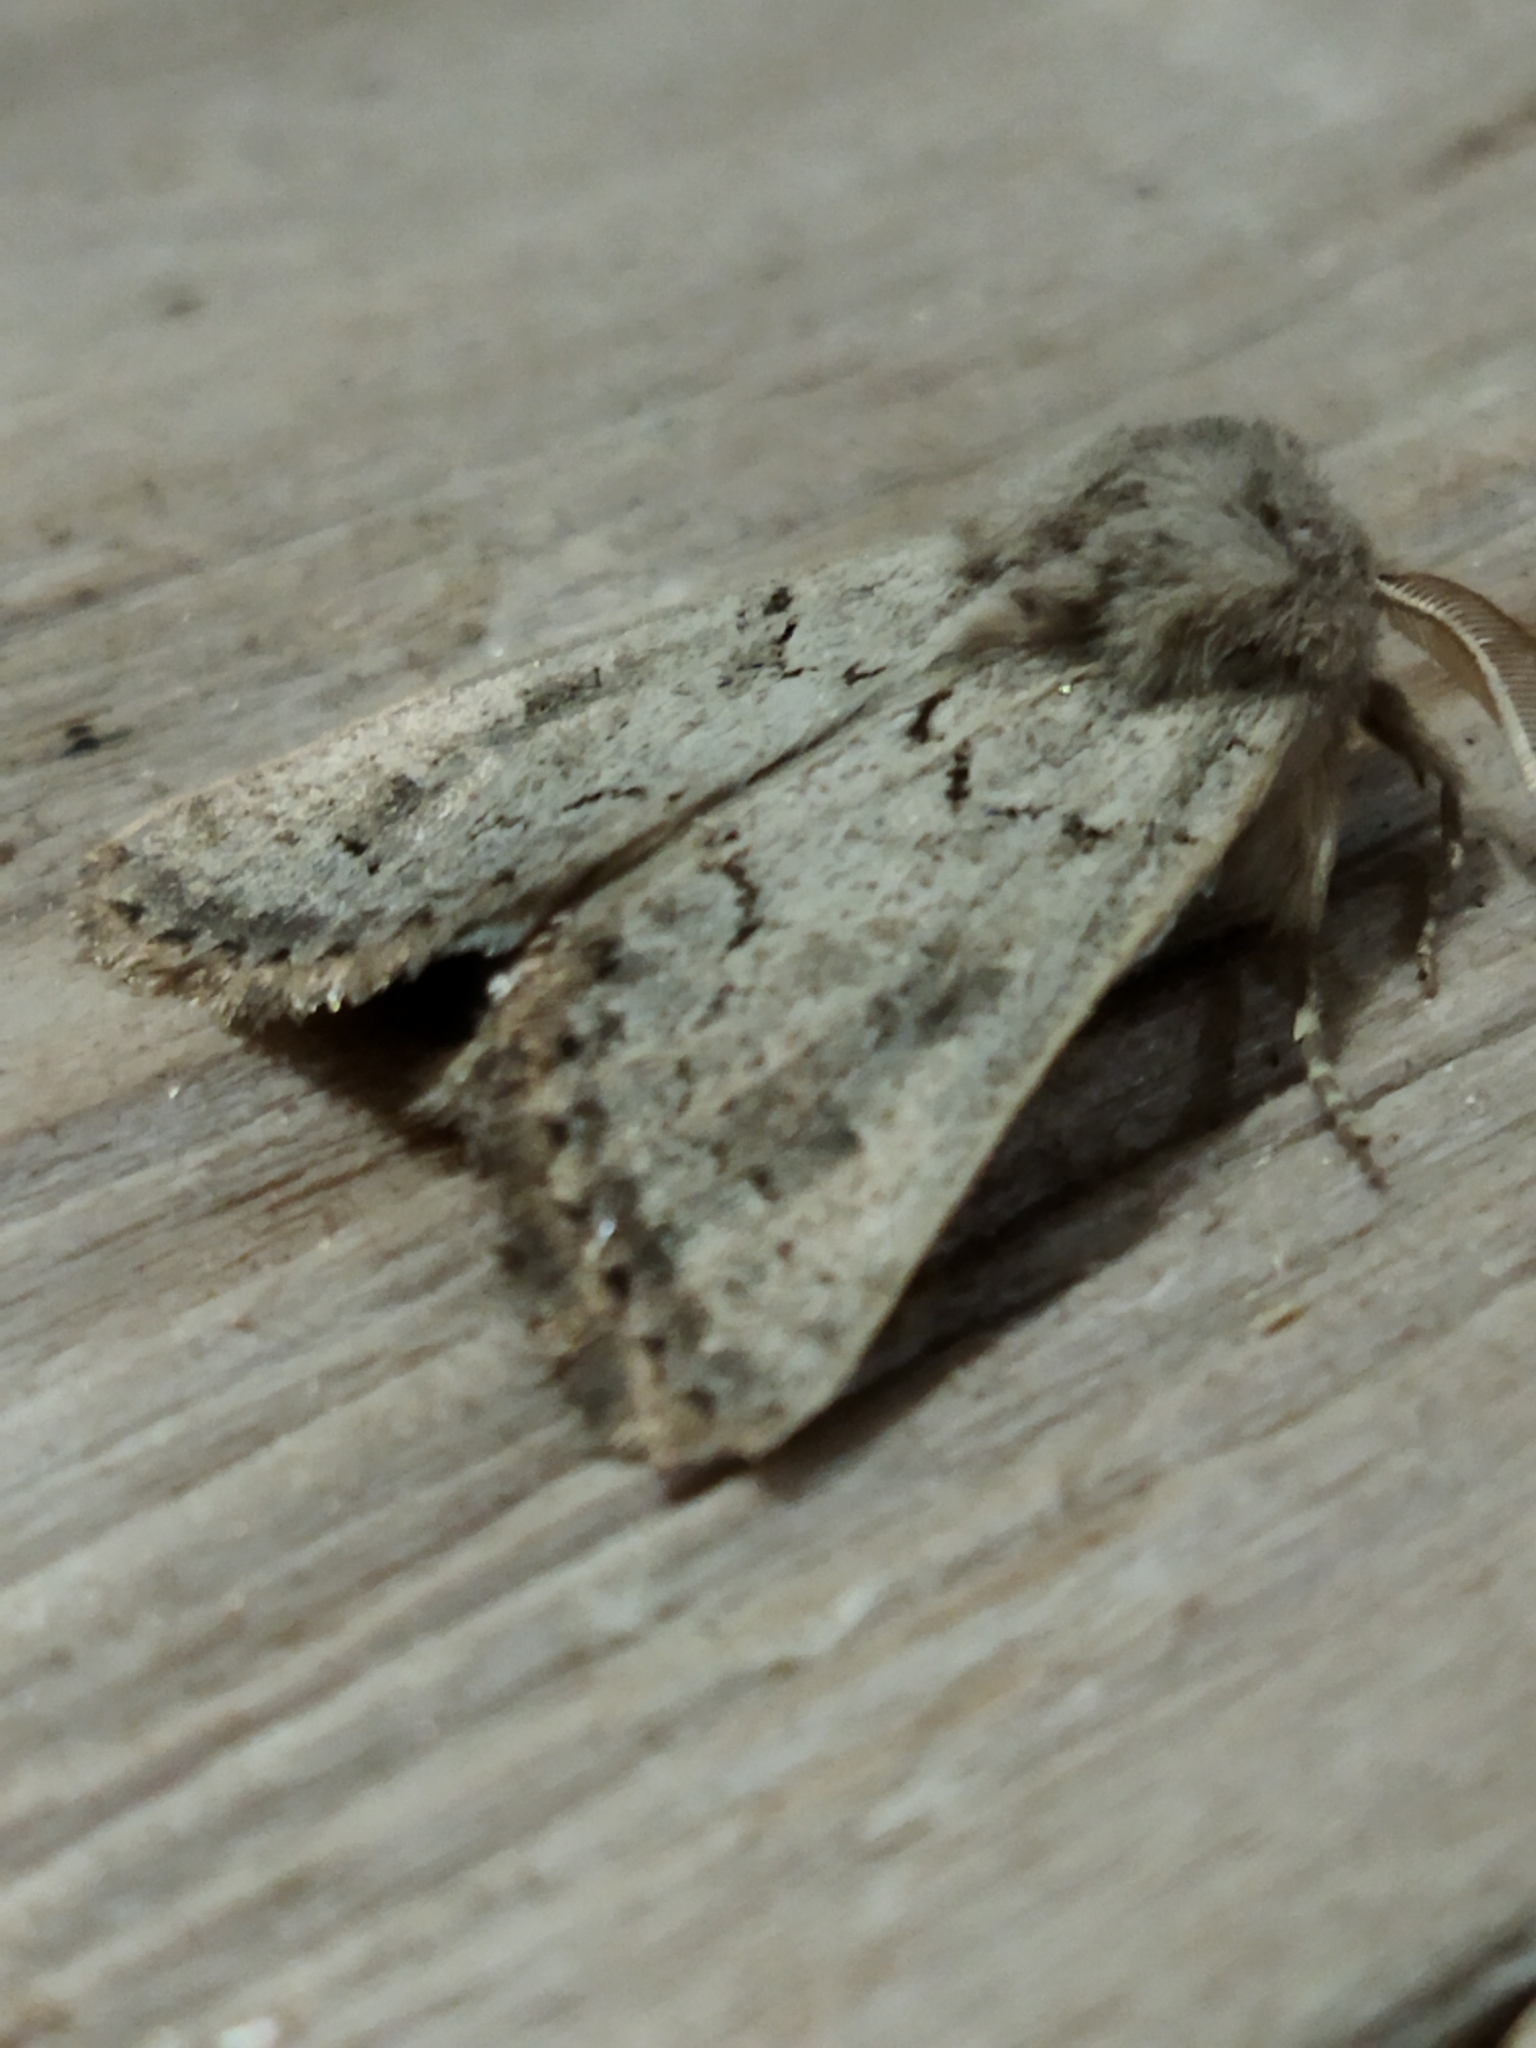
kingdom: Animalia
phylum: Arthropoda
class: Insecta
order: Lepidoptera
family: Noctuidae
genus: Episema
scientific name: Episema lederi
